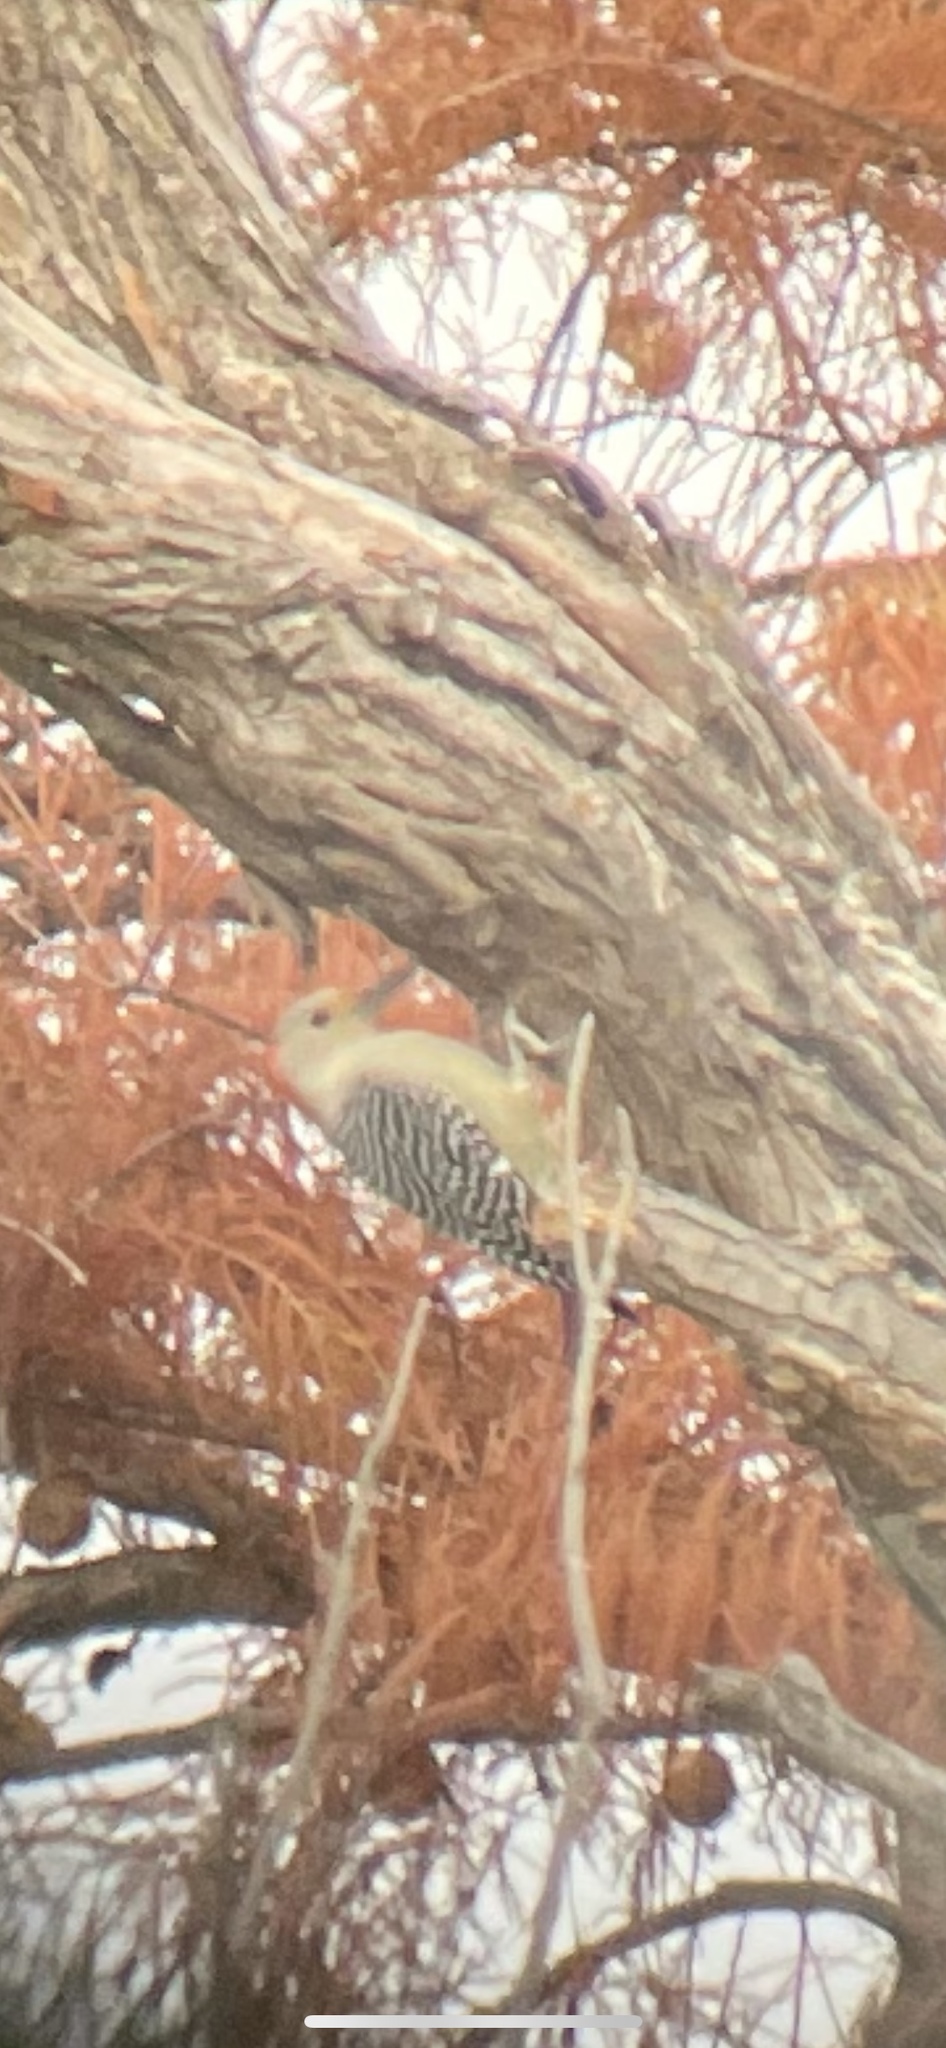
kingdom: Animalia
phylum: Chordata
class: Aves
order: Piciformes
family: Picidae
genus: Melanerpes
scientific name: Melanerpes carolinus
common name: Red-bellied woodpecker
